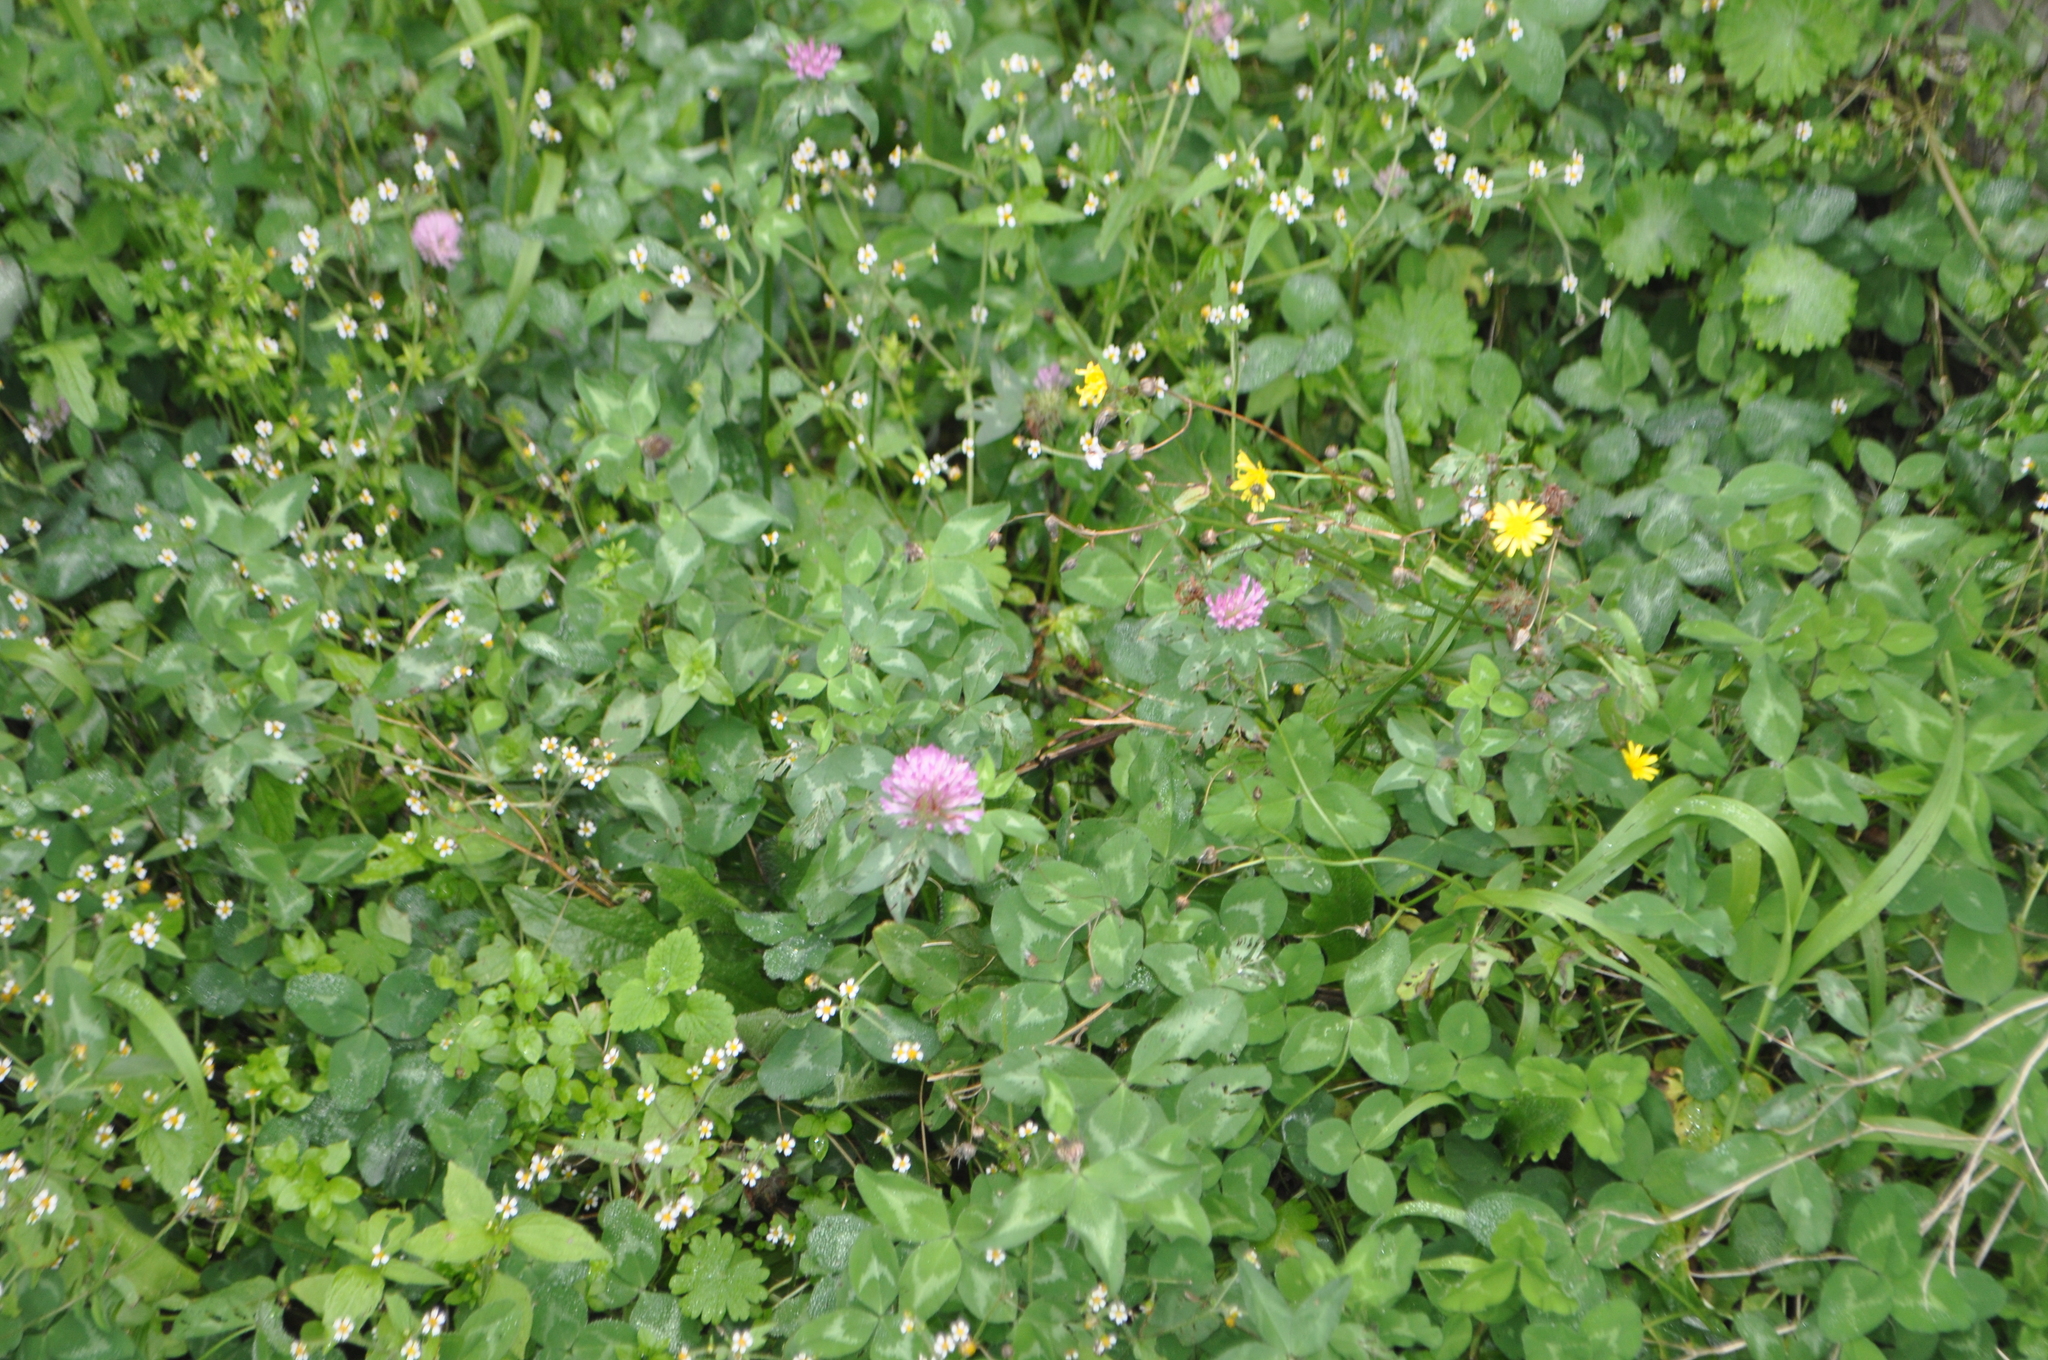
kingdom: Plantae
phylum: Tracheophyta
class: Magnoliopsida
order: Fabales
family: Fabaceae
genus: Trifolium
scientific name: Trifolium pratense
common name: Red clover
